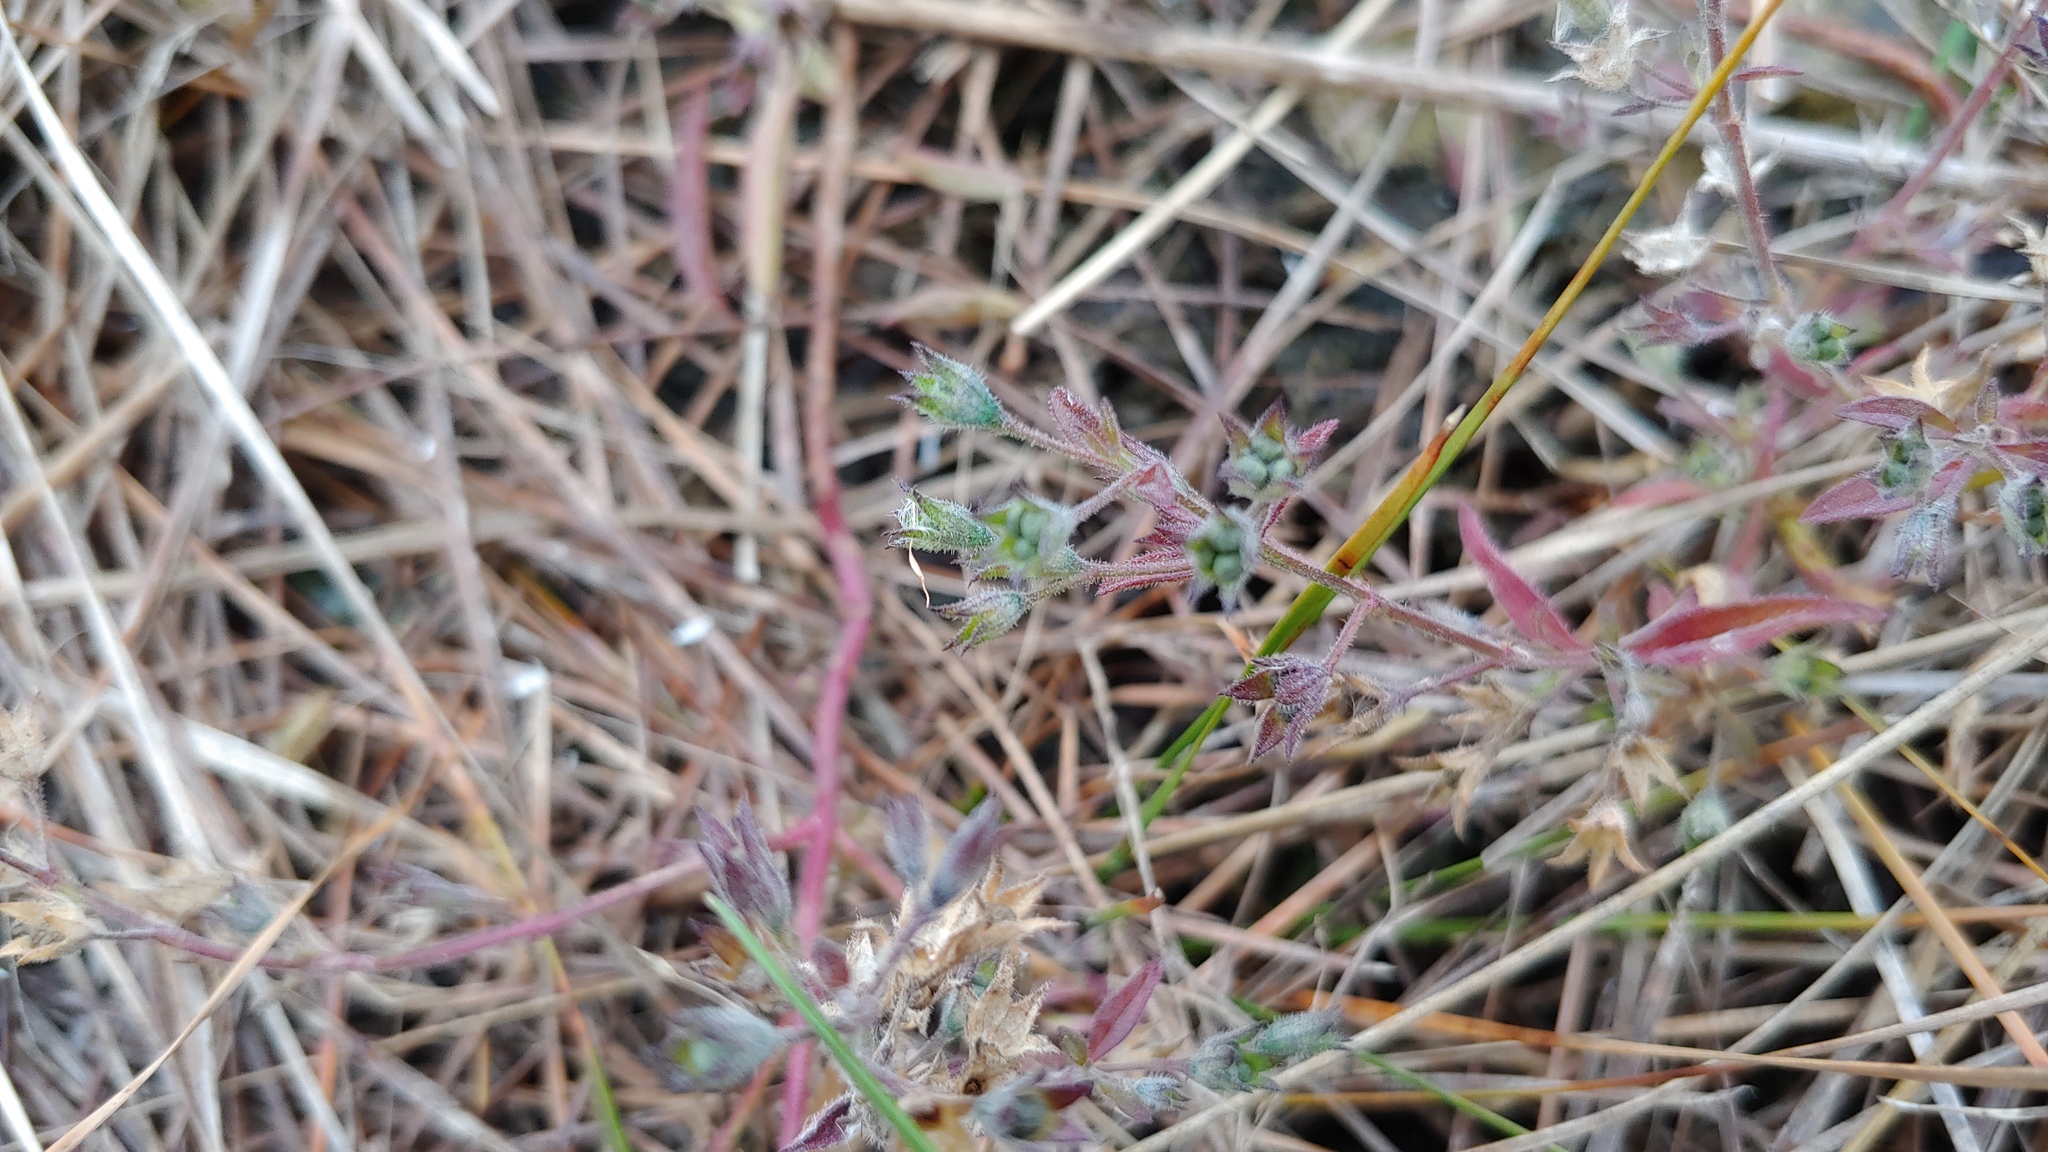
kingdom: Plantae
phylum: Tracheophyta
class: Magnoliopsida
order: Lamiales
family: Lamiaceae
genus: Trichostema
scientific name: Trichostema brachiatum
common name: False pennyroyal
